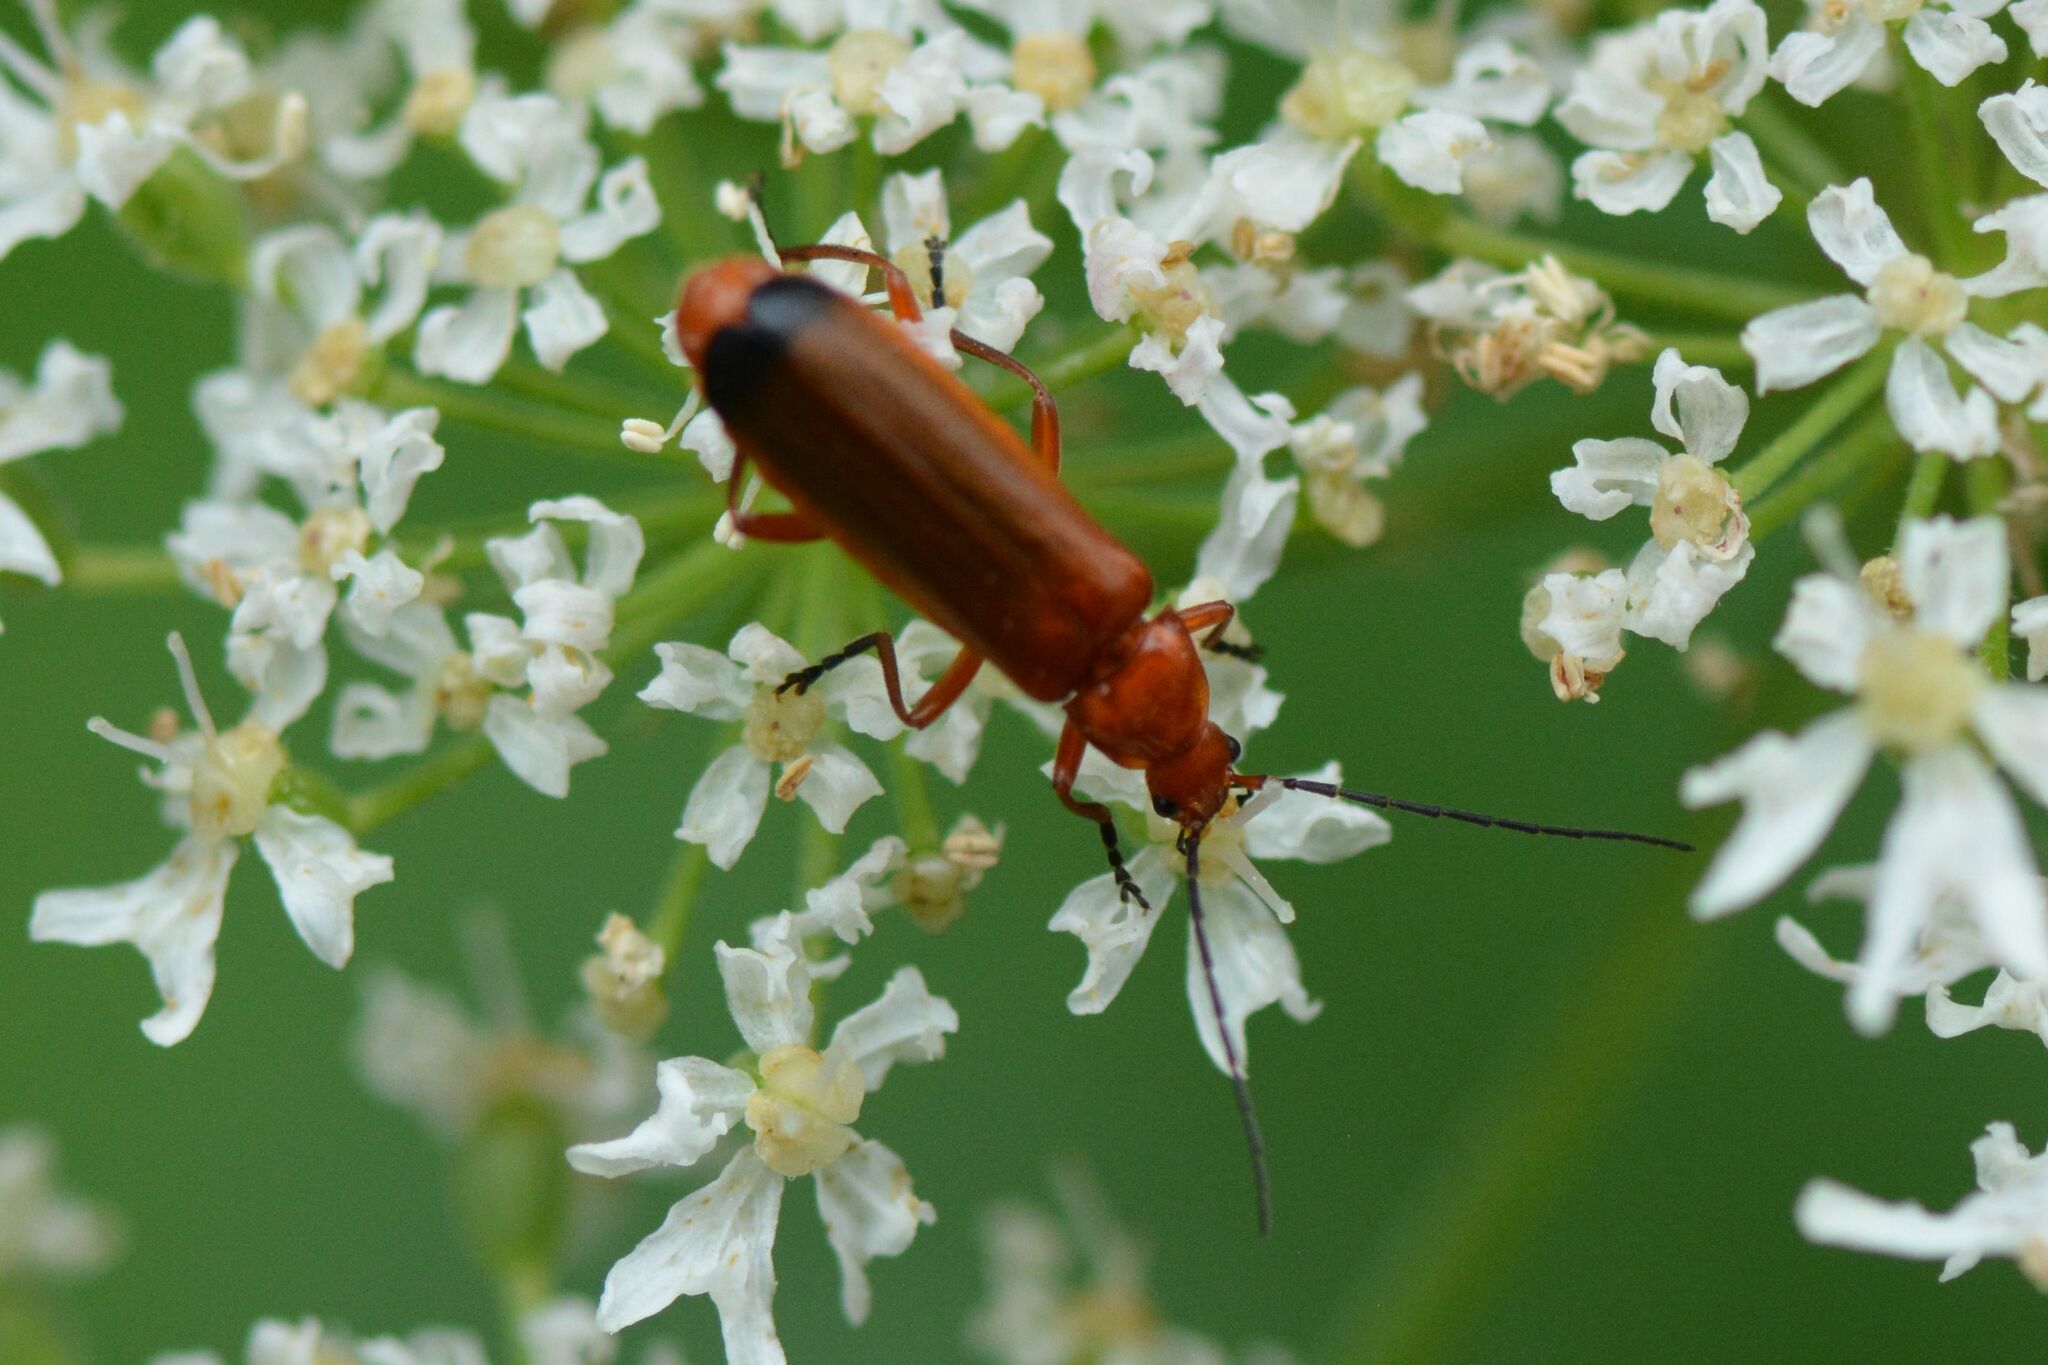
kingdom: Animalia
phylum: Arthropoda
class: Insecta
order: Coleoptera
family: Cantharidae
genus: Rhagonycha
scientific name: Rhagonycha fulva
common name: Common red soldier beetle
